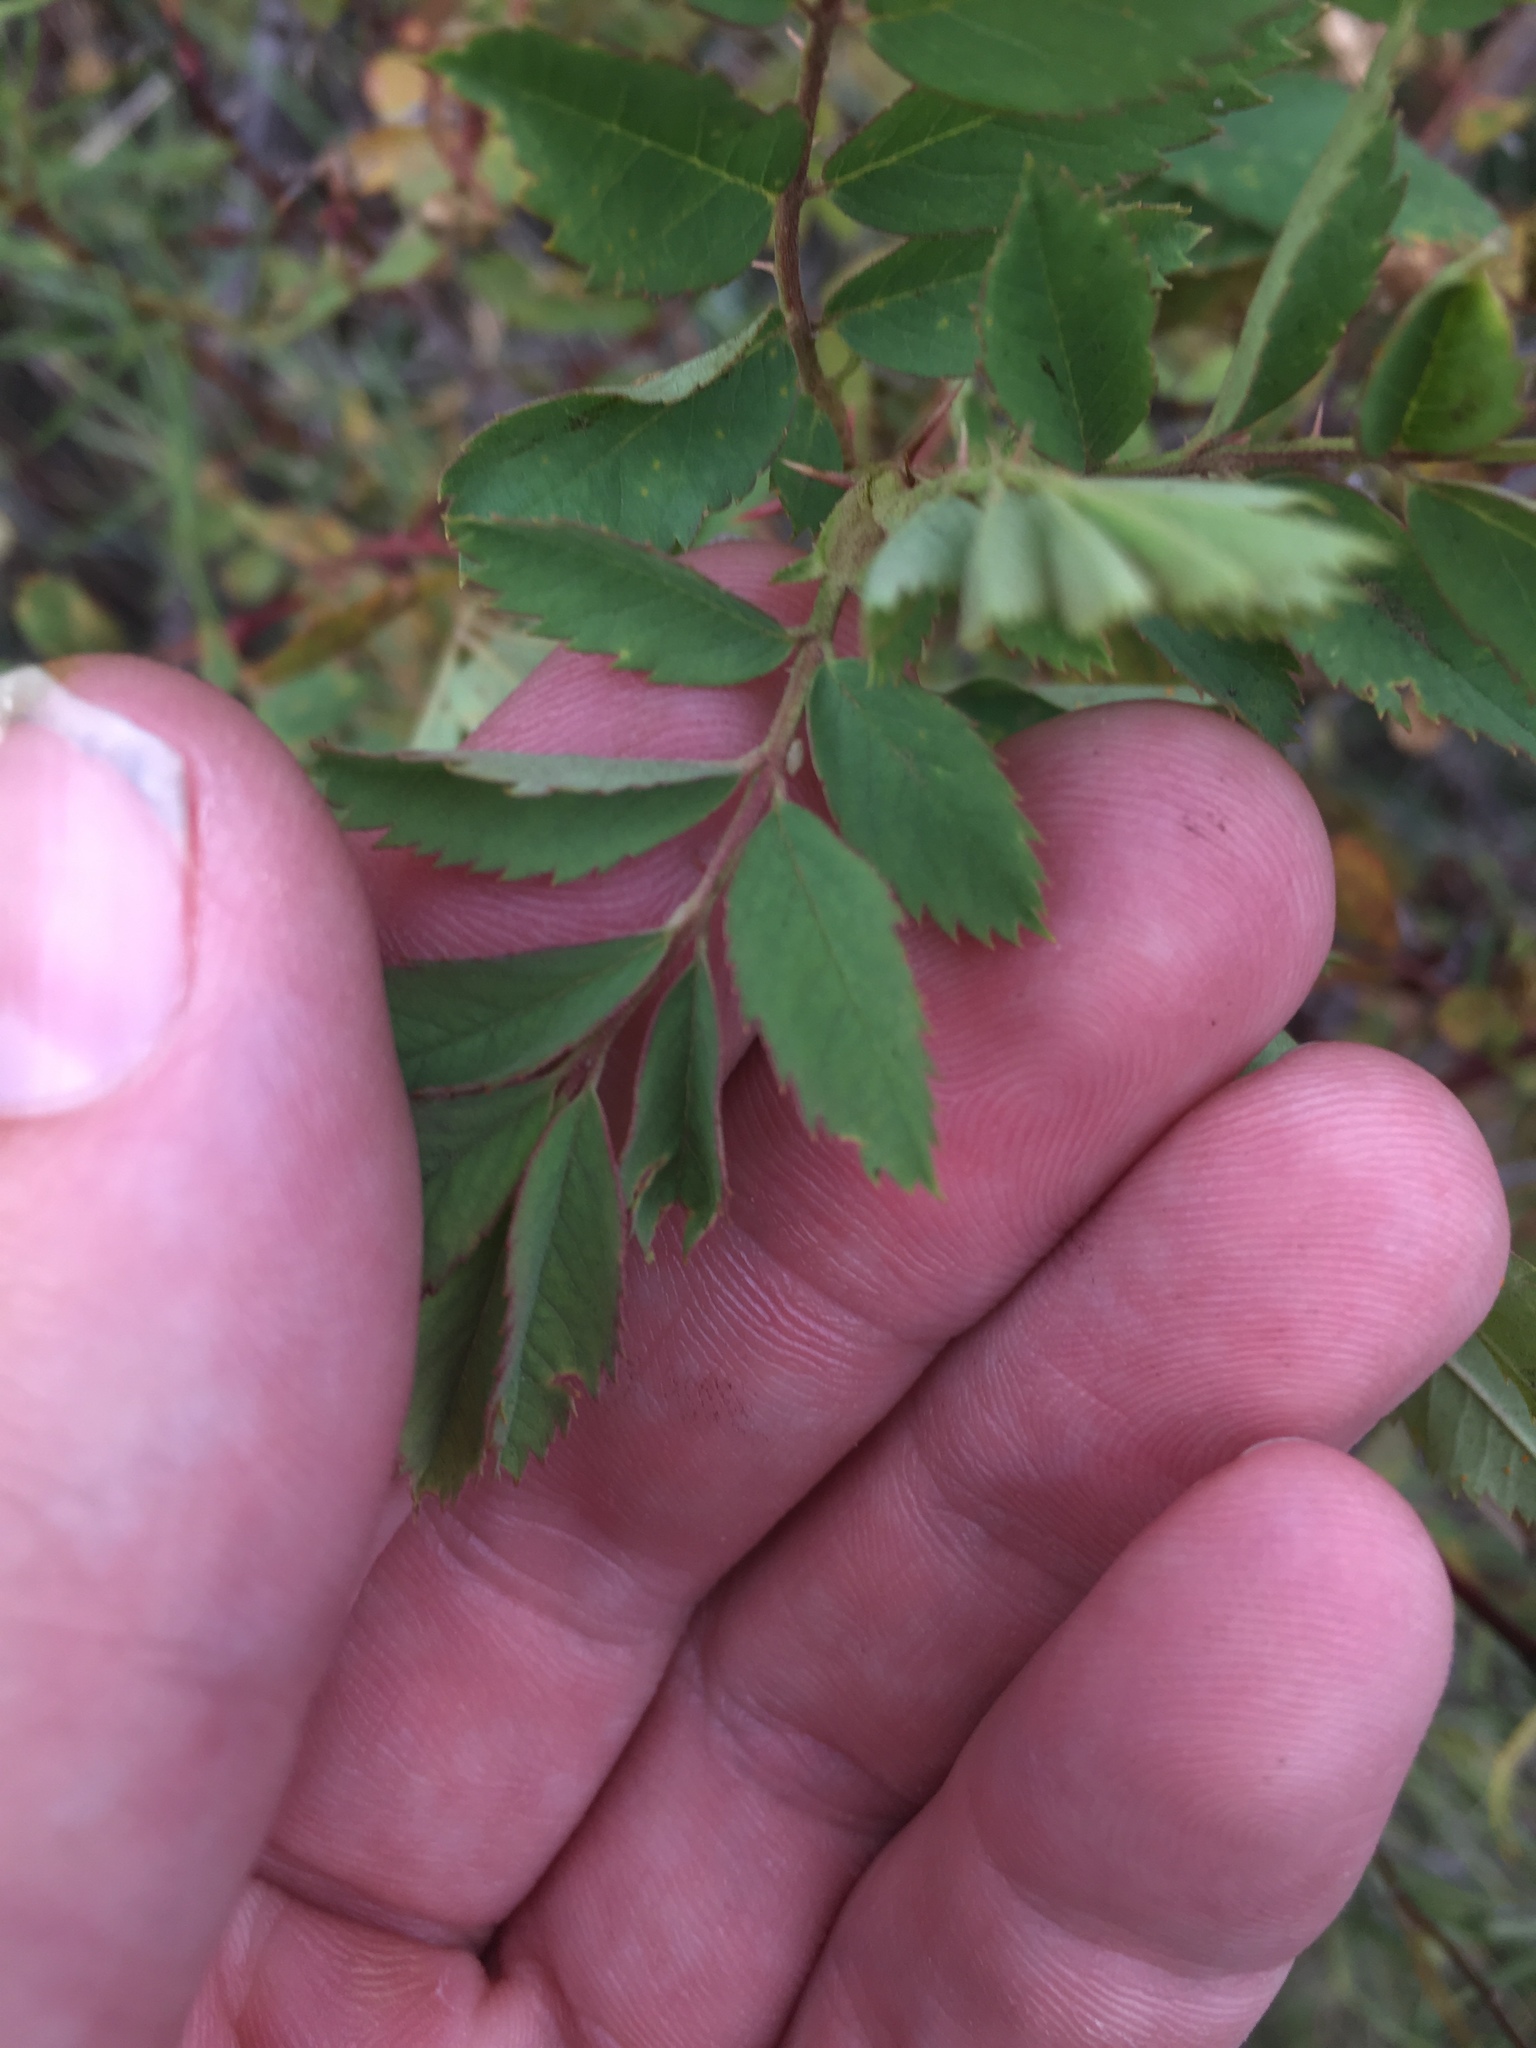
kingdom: Plantae
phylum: Tracheophyta
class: Magnoliopsida
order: Rosales
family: Rosaceae
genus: Rosa
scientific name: Rosa woodsii
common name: Woods's rose
